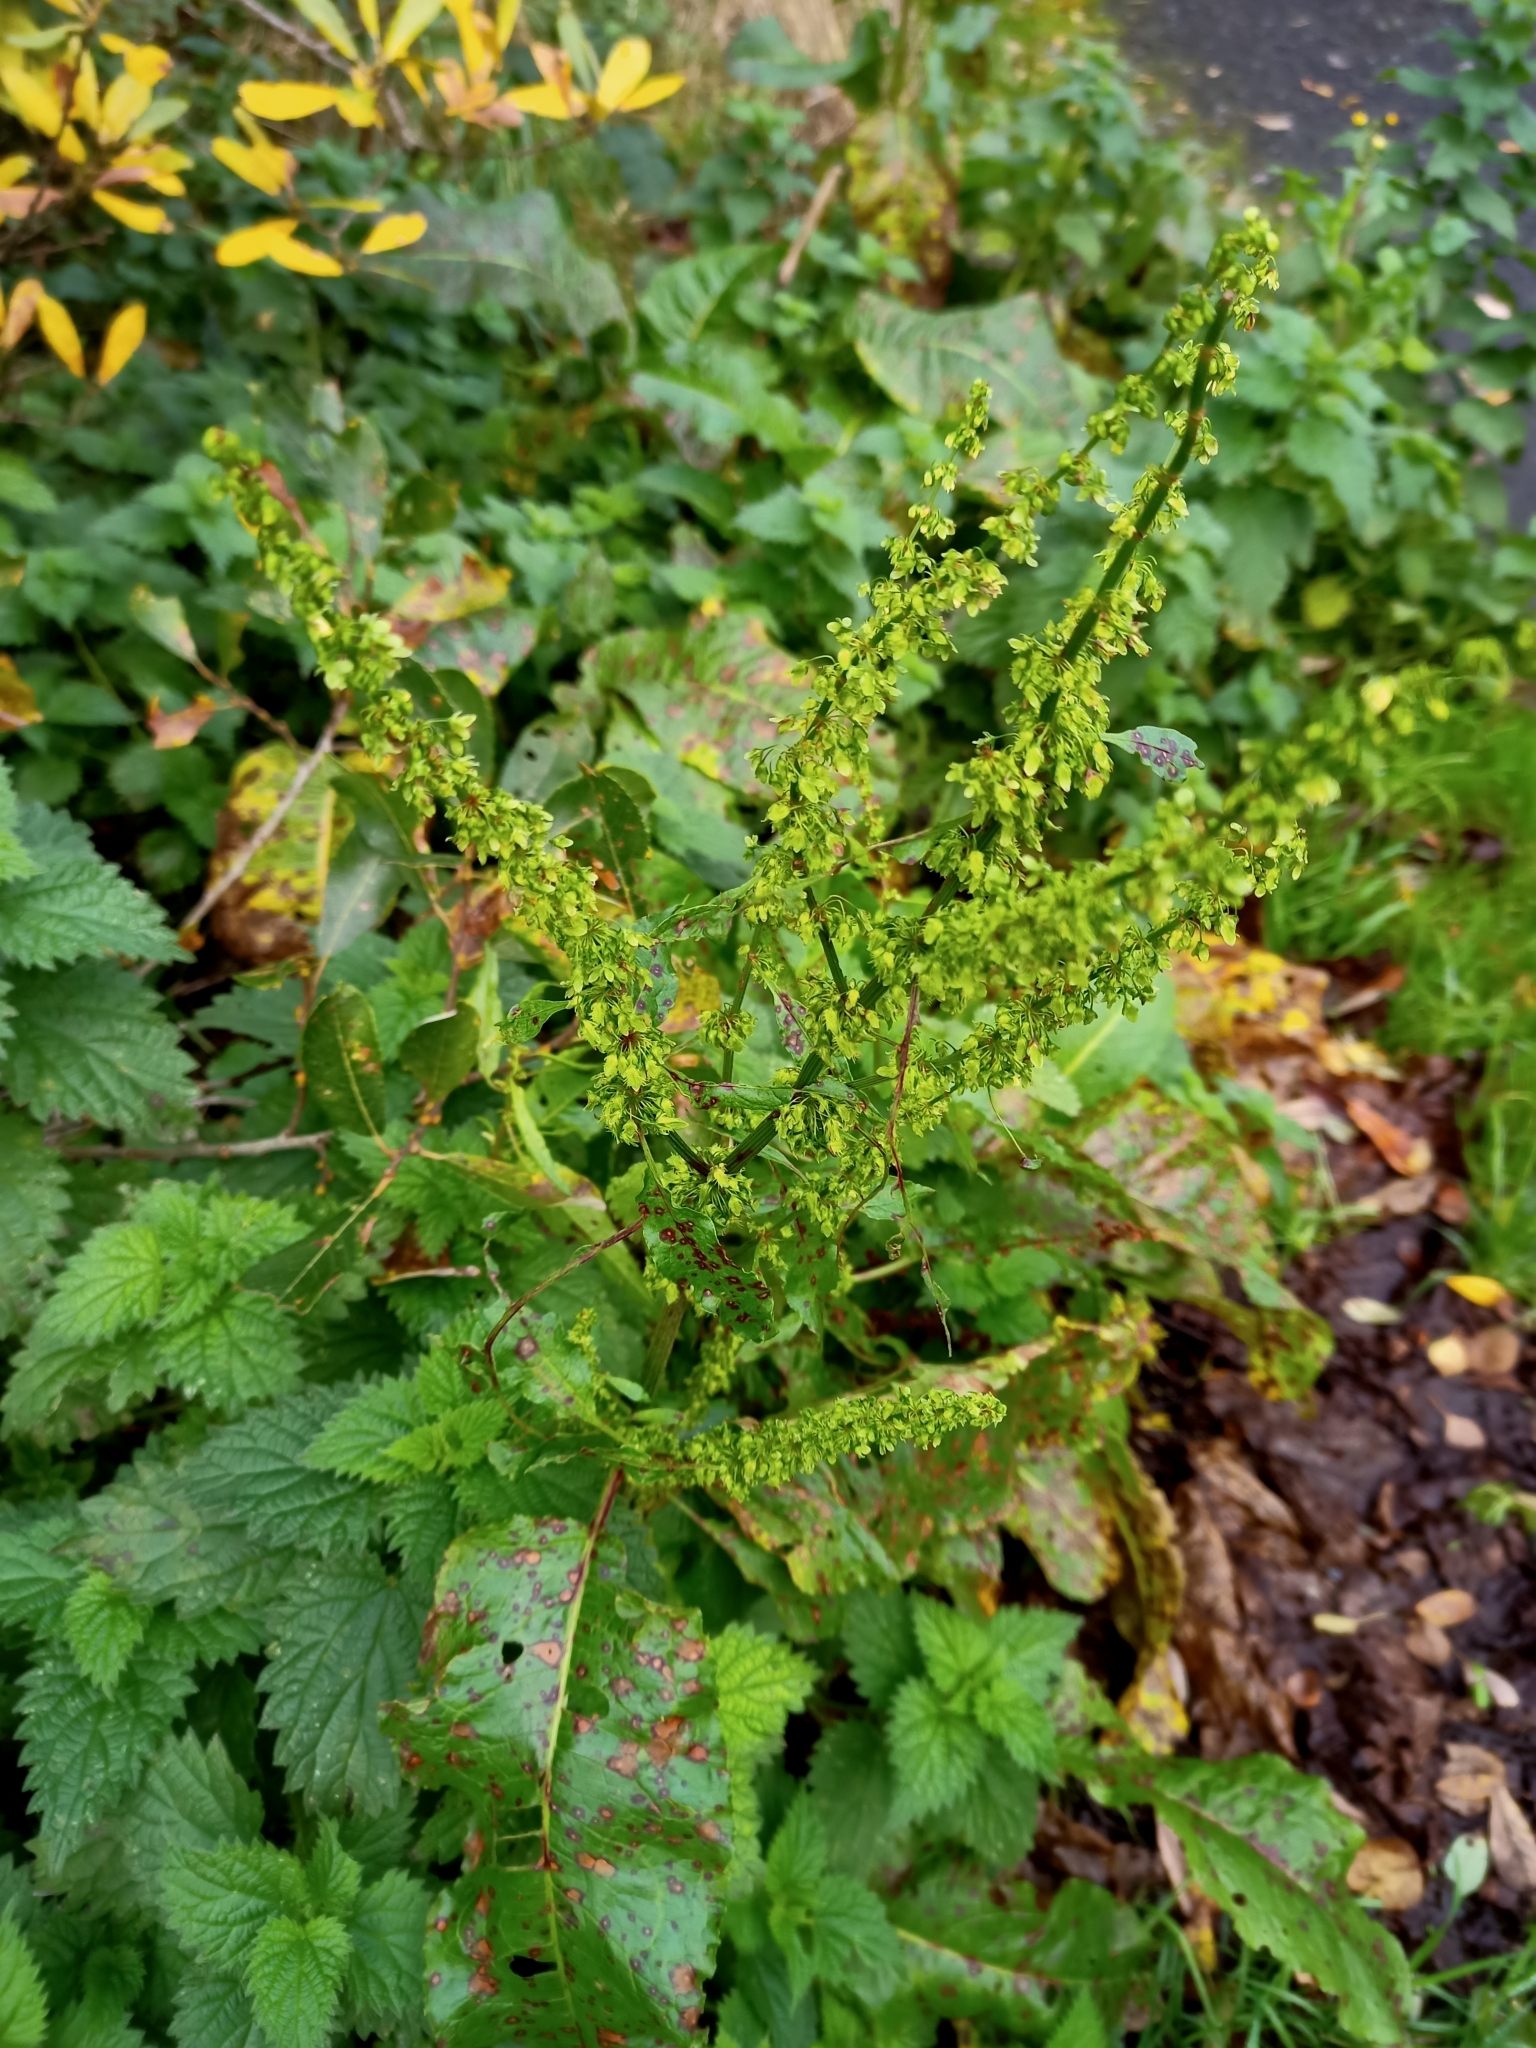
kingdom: Plantae
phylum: Tracheophyta
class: Magnoliopsida
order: Caryophyllales
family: Polygonaceae
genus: Rumex
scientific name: Rumex obtusifolius
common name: Bitter dock
